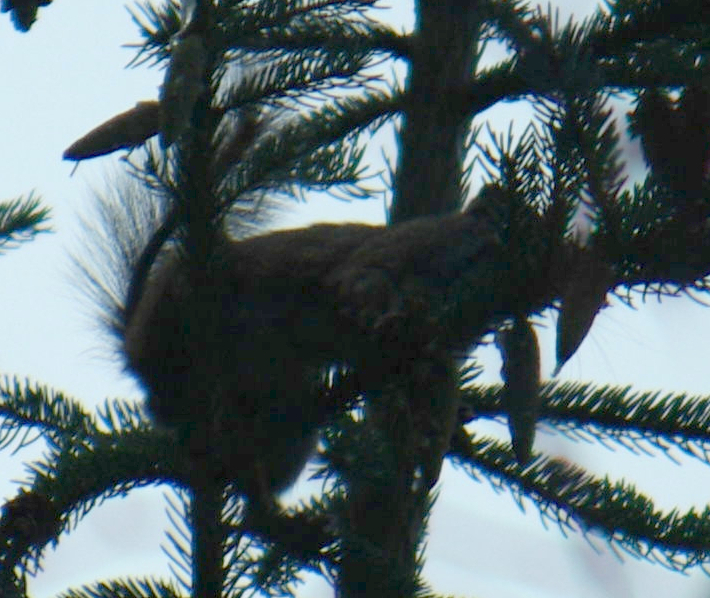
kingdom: Animalia
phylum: Chordata
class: Mammalia
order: Rodentia
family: Sciuridae
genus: Tamiasciurus
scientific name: Tamiasciurus hudsonicus
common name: Red squirrel
